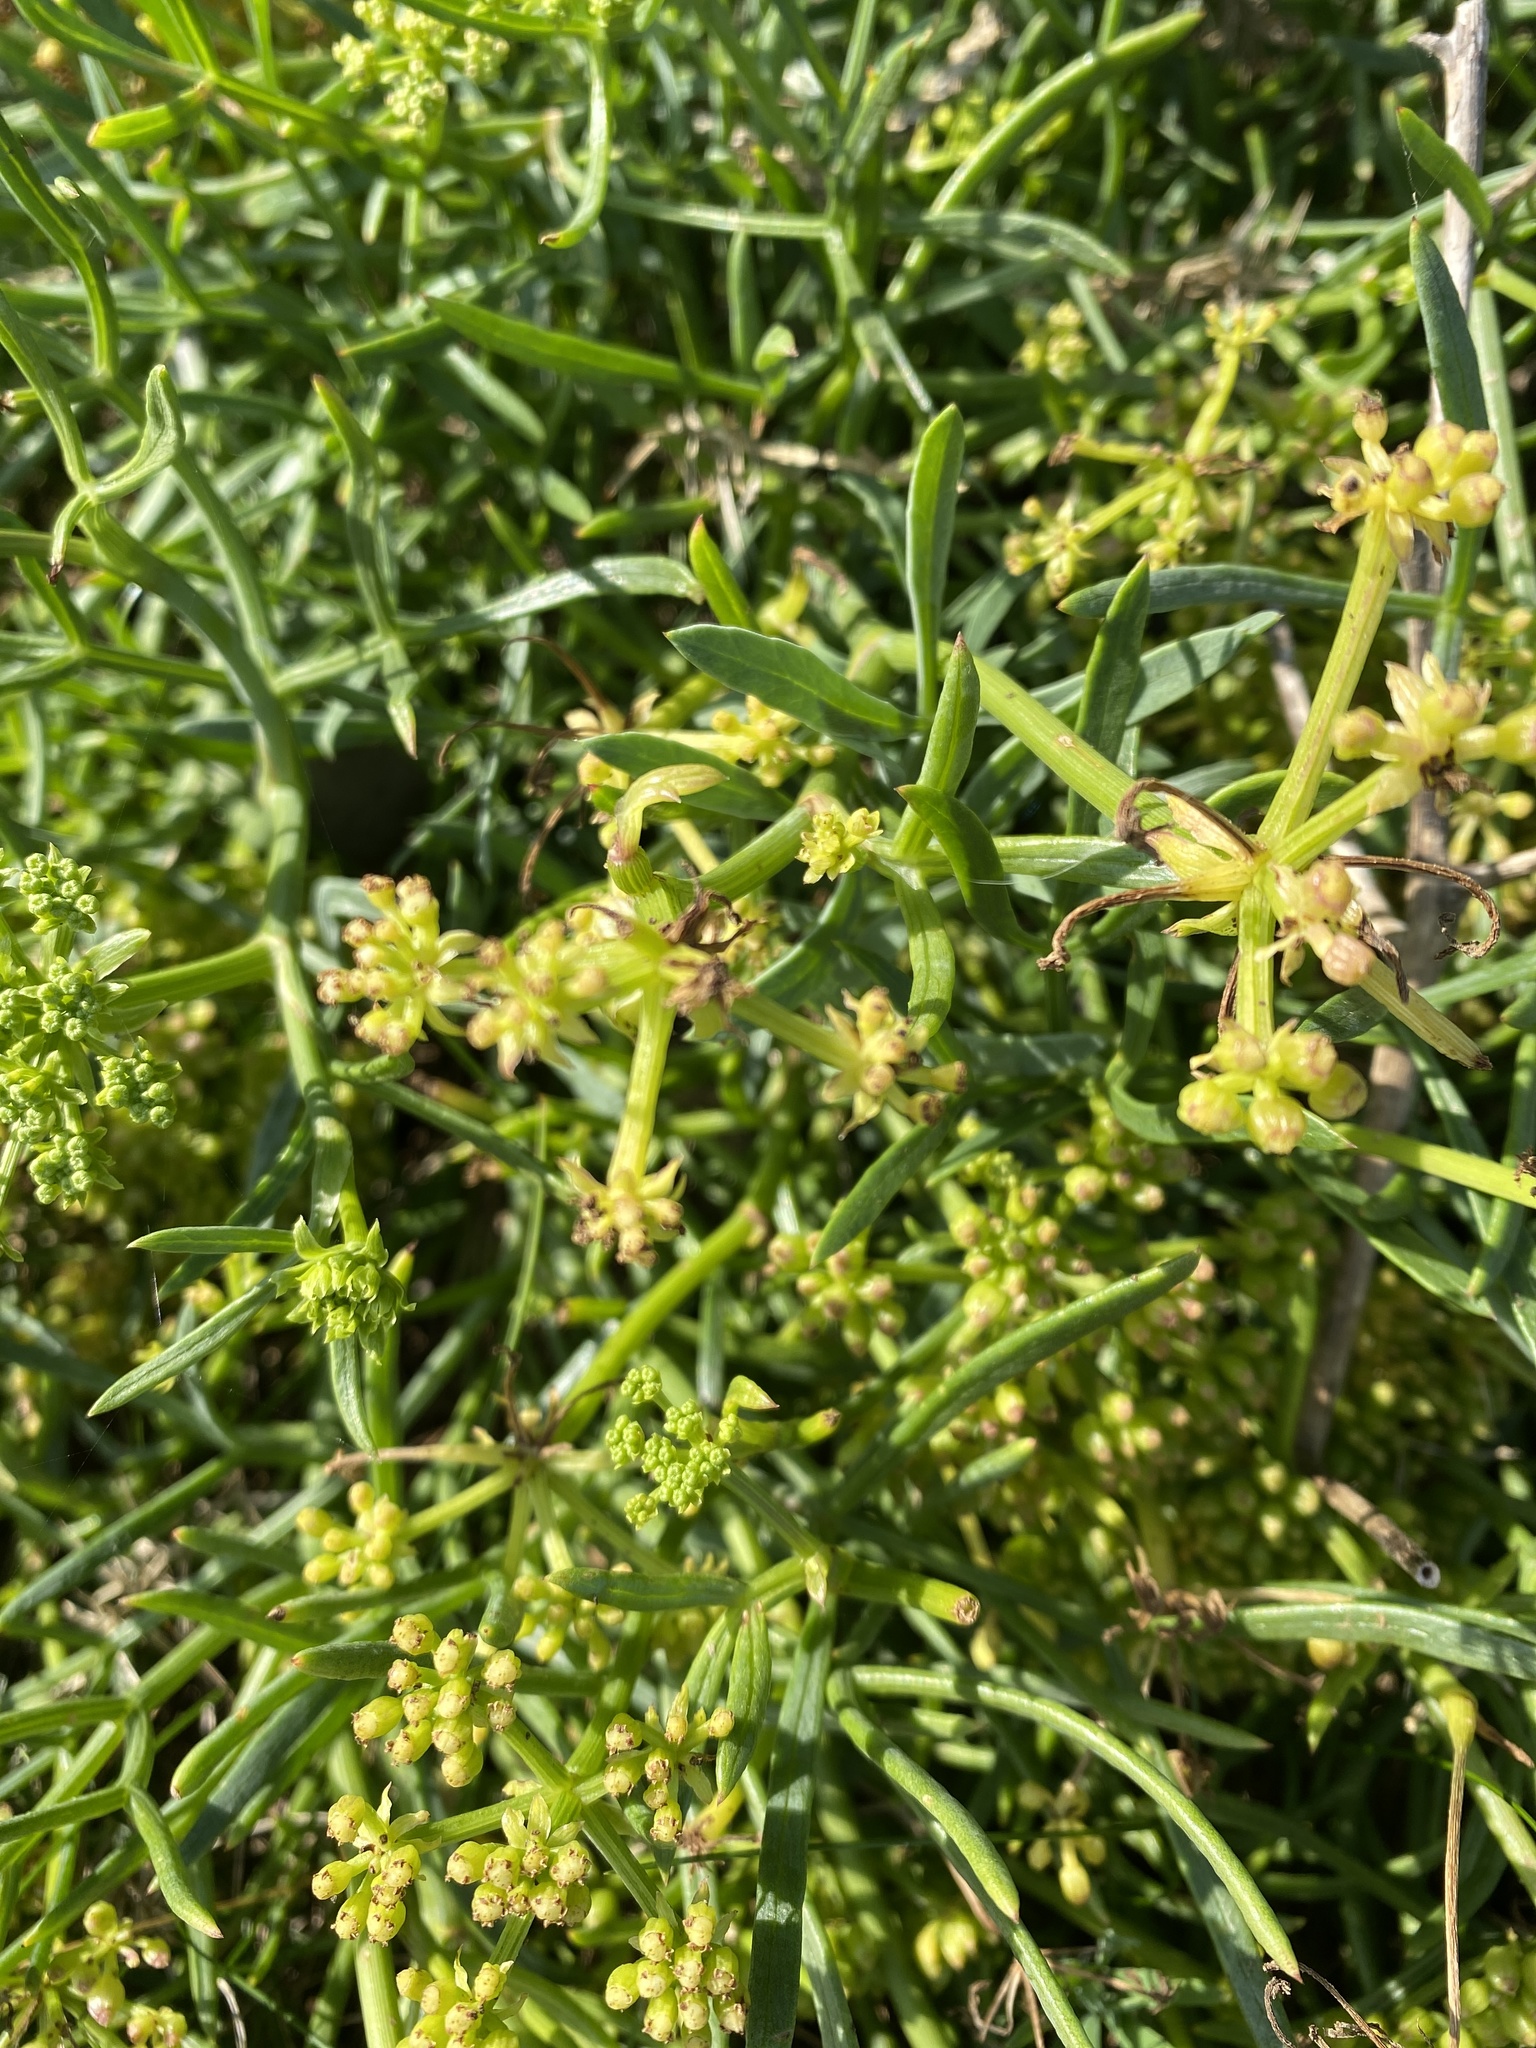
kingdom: Plantae
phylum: Tracheophyta
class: Magnoliopsida
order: Apiales
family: Apiaceae
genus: Crithmum
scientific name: Crithmum maritimum
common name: Rock samphire
